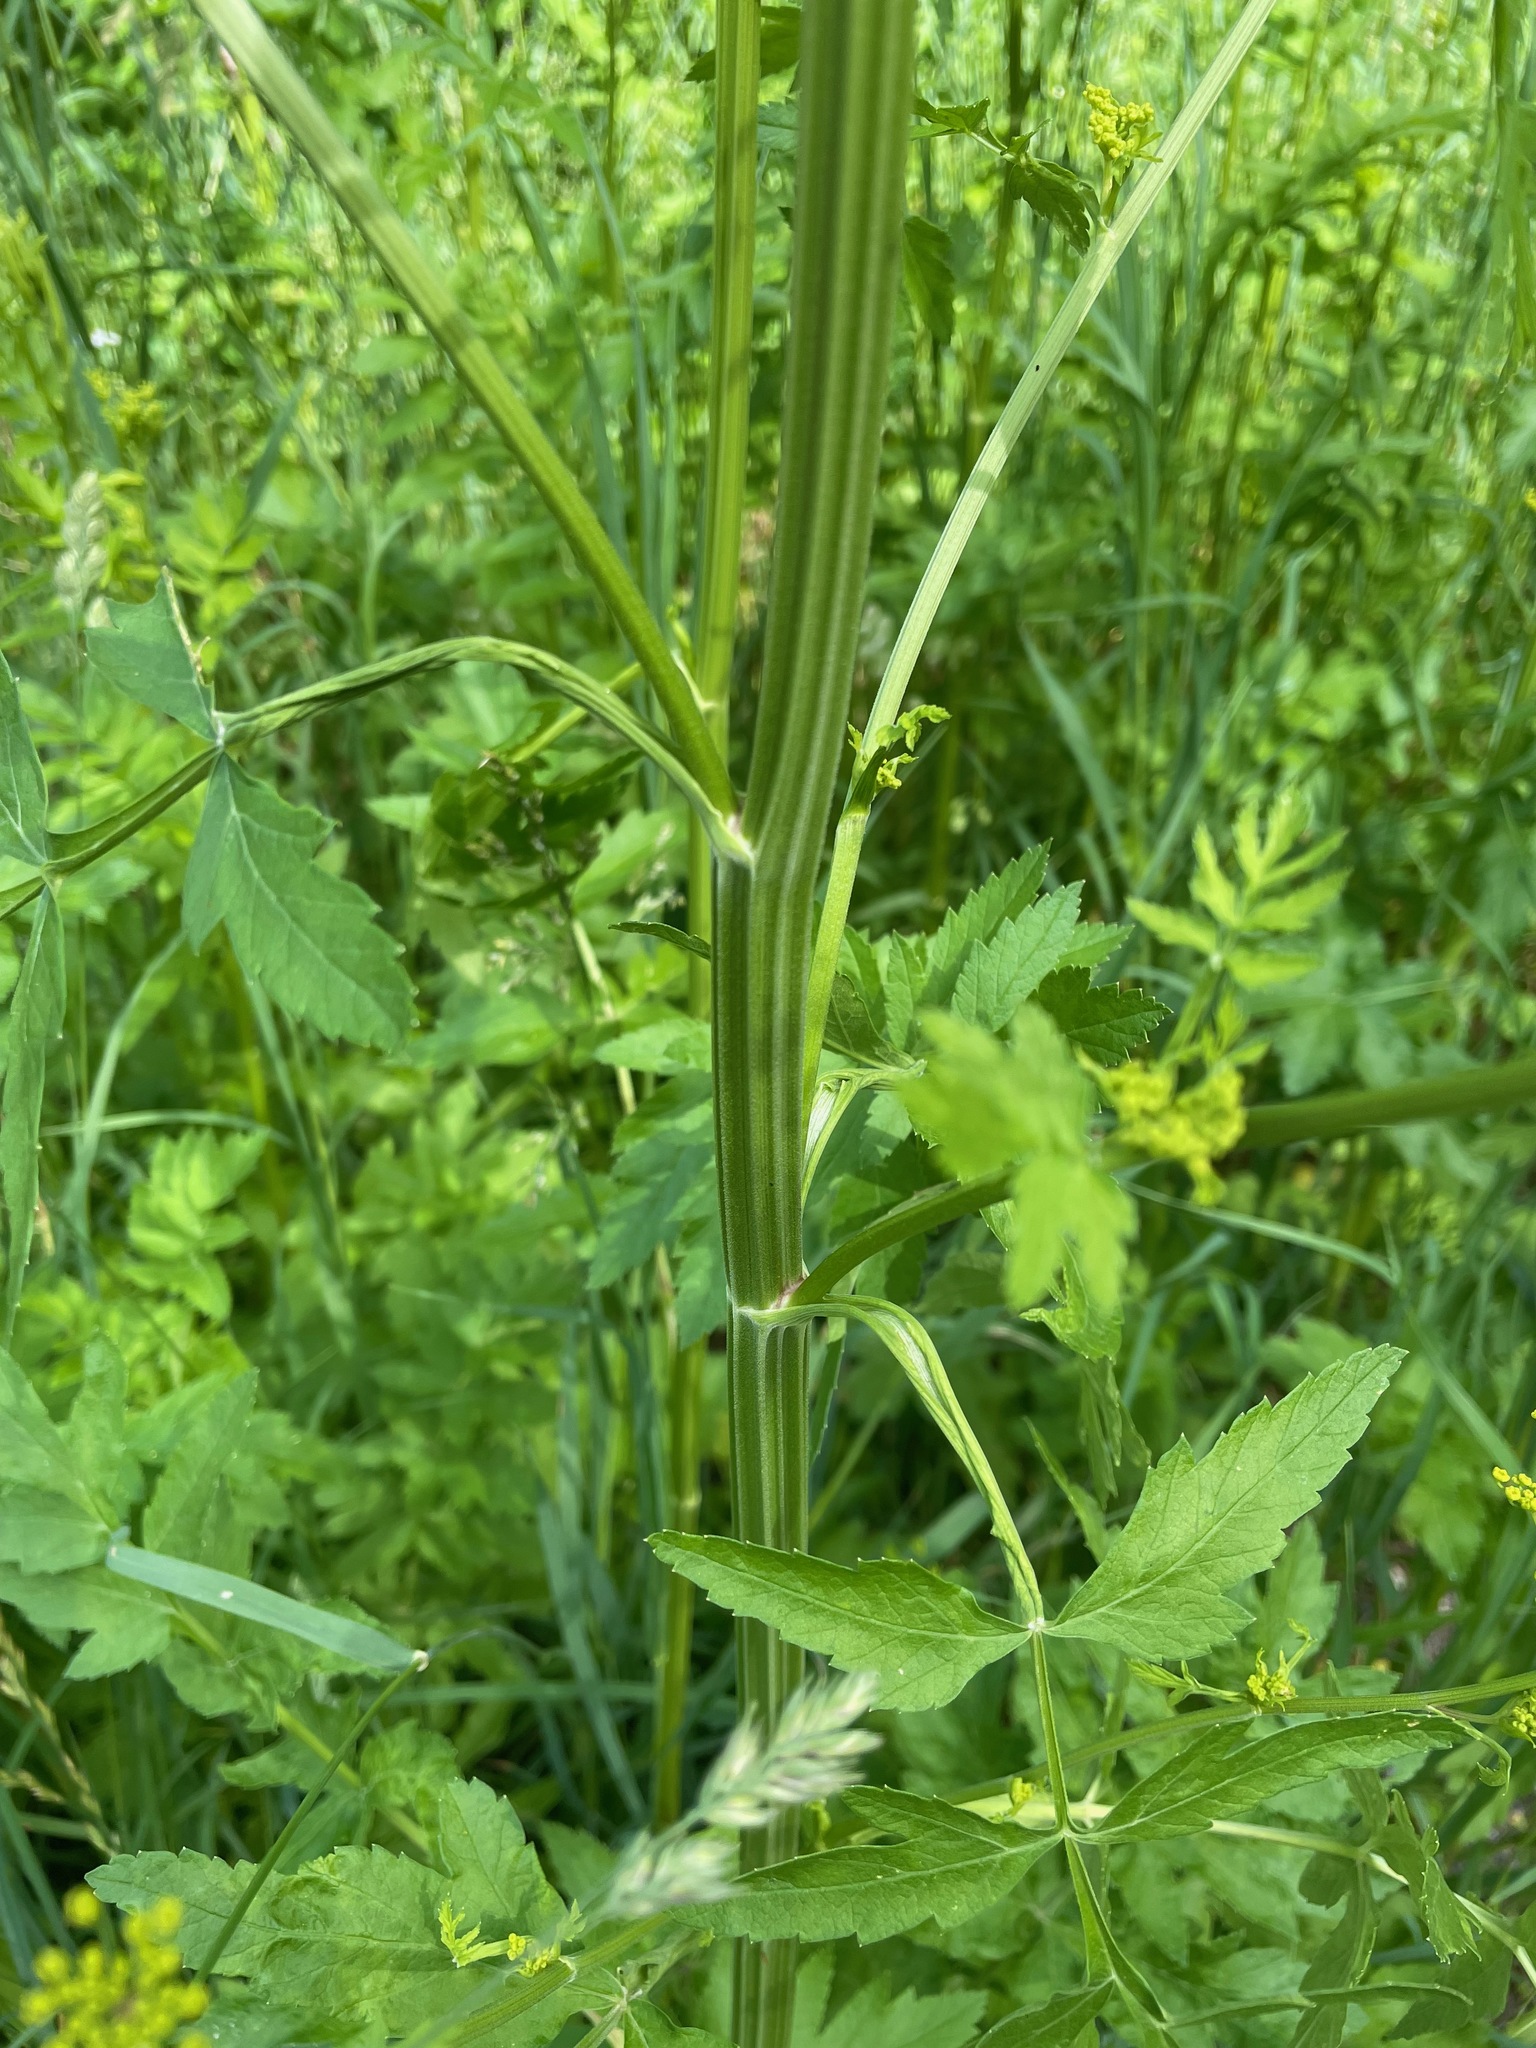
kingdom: Plantae
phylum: Tracheophyta
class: Magnoliopsida
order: Apiales
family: Apiaceae
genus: Pastinaca
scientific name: Pastinaca sativa
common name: Wild parsnip
